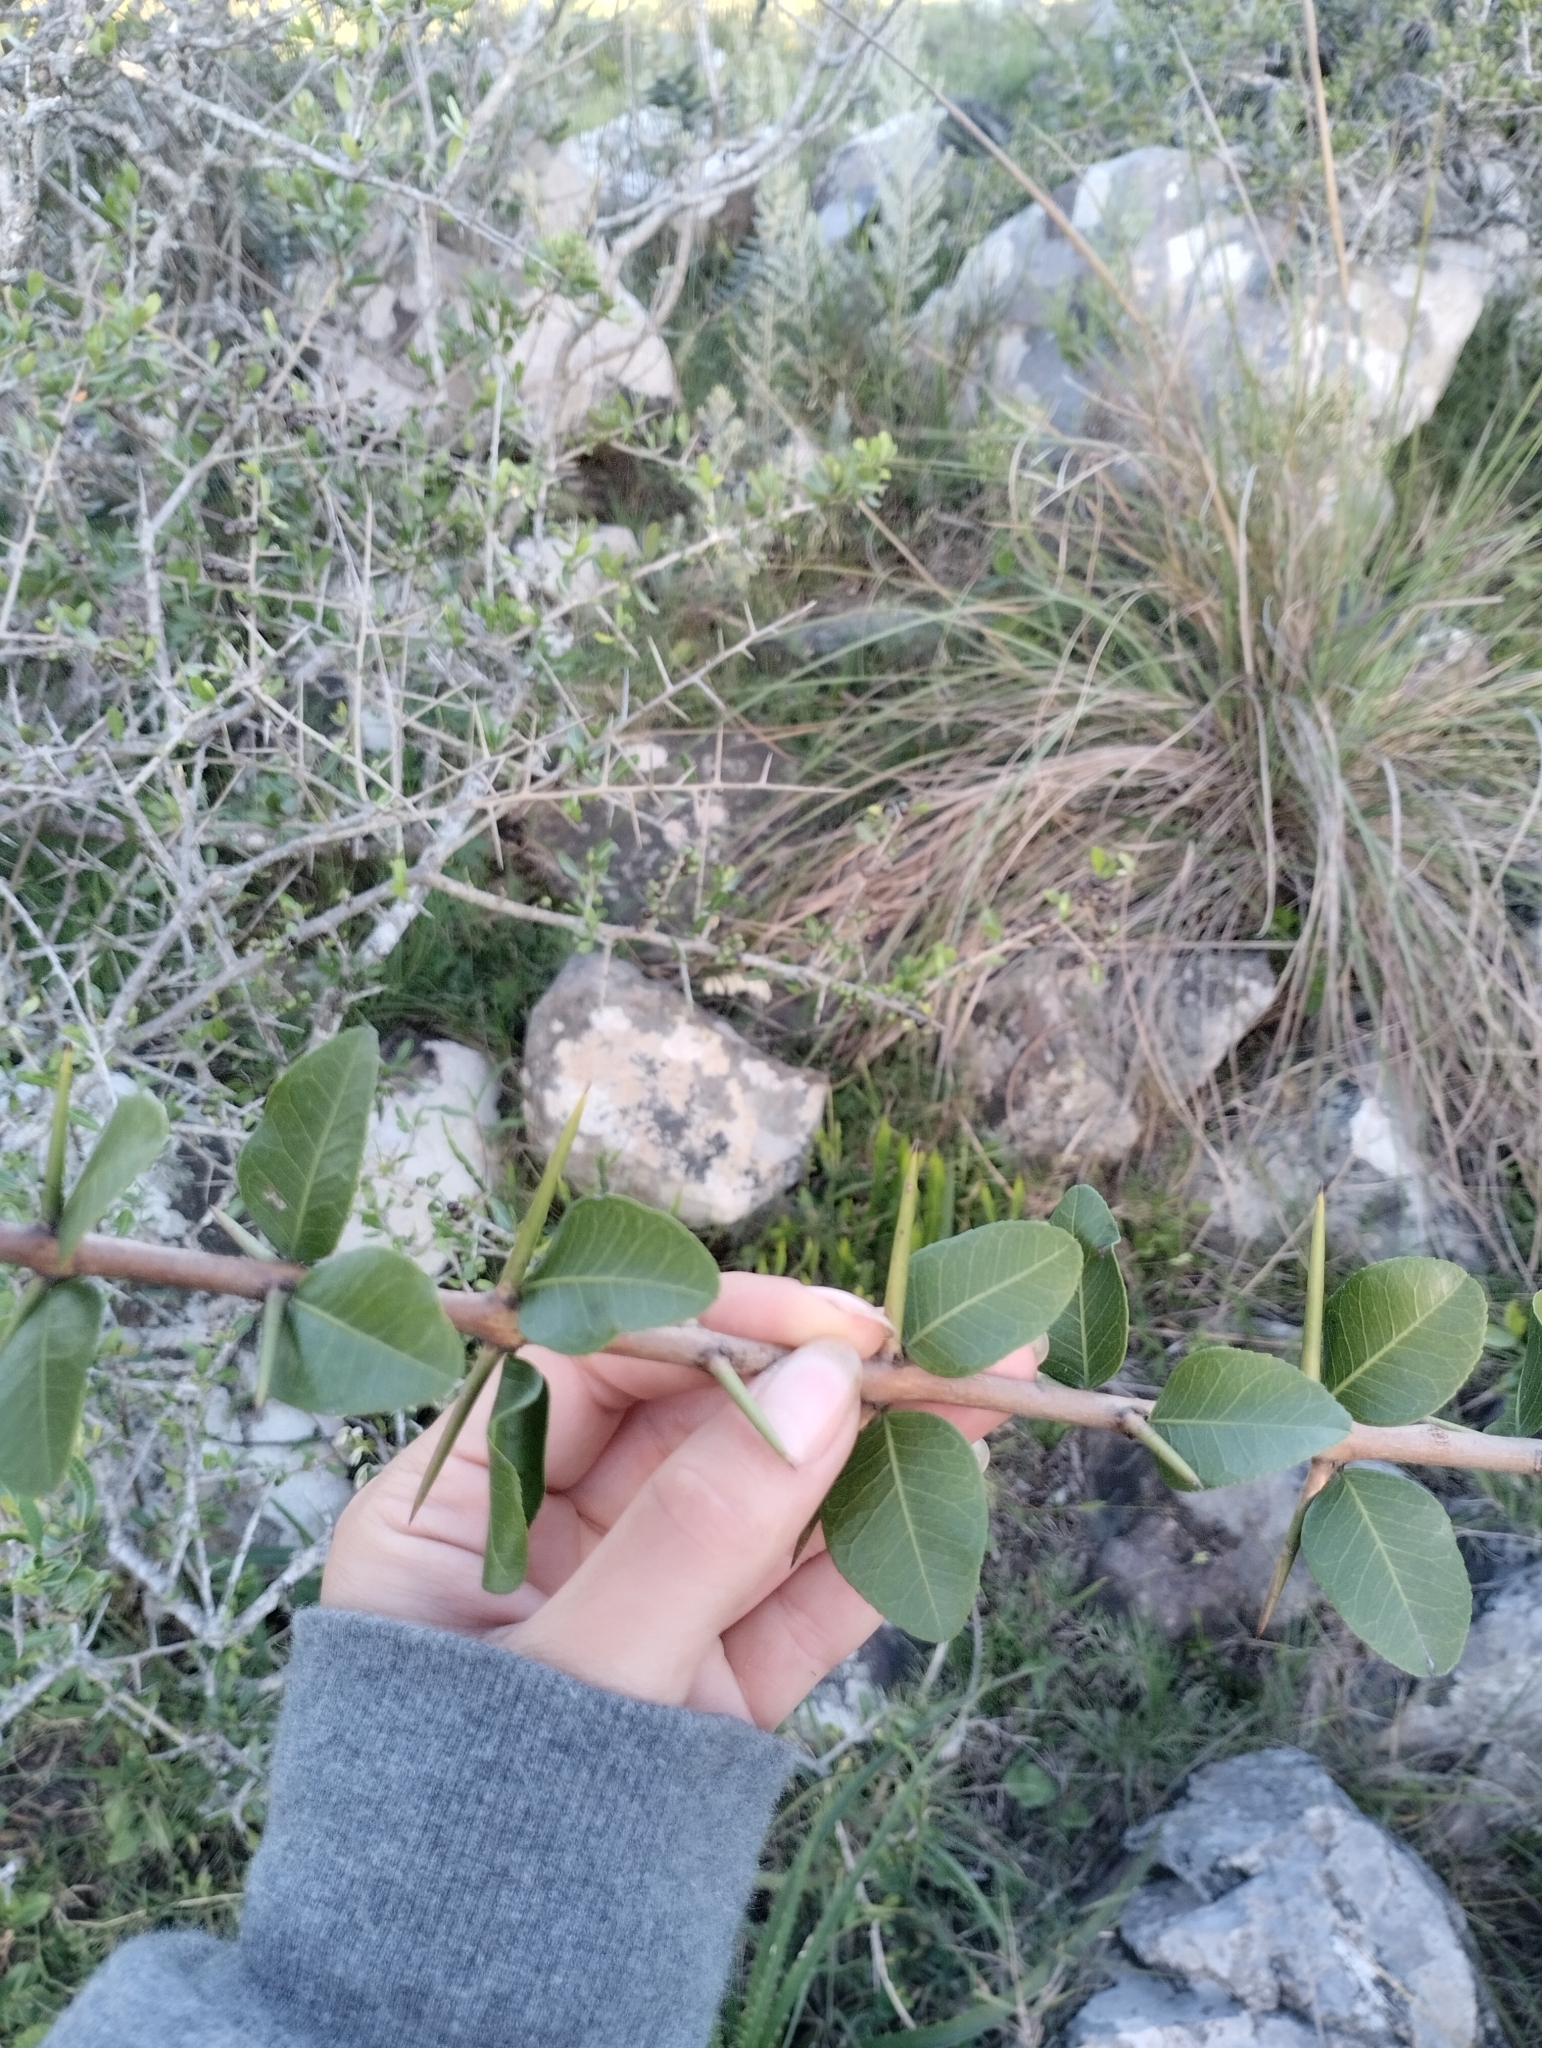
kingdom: Plantae
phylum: Tracheophyta
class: Magnoliopsida
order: Rosales
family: Rhamnaceae
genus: Scutia
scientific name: Scutia buxifolia
